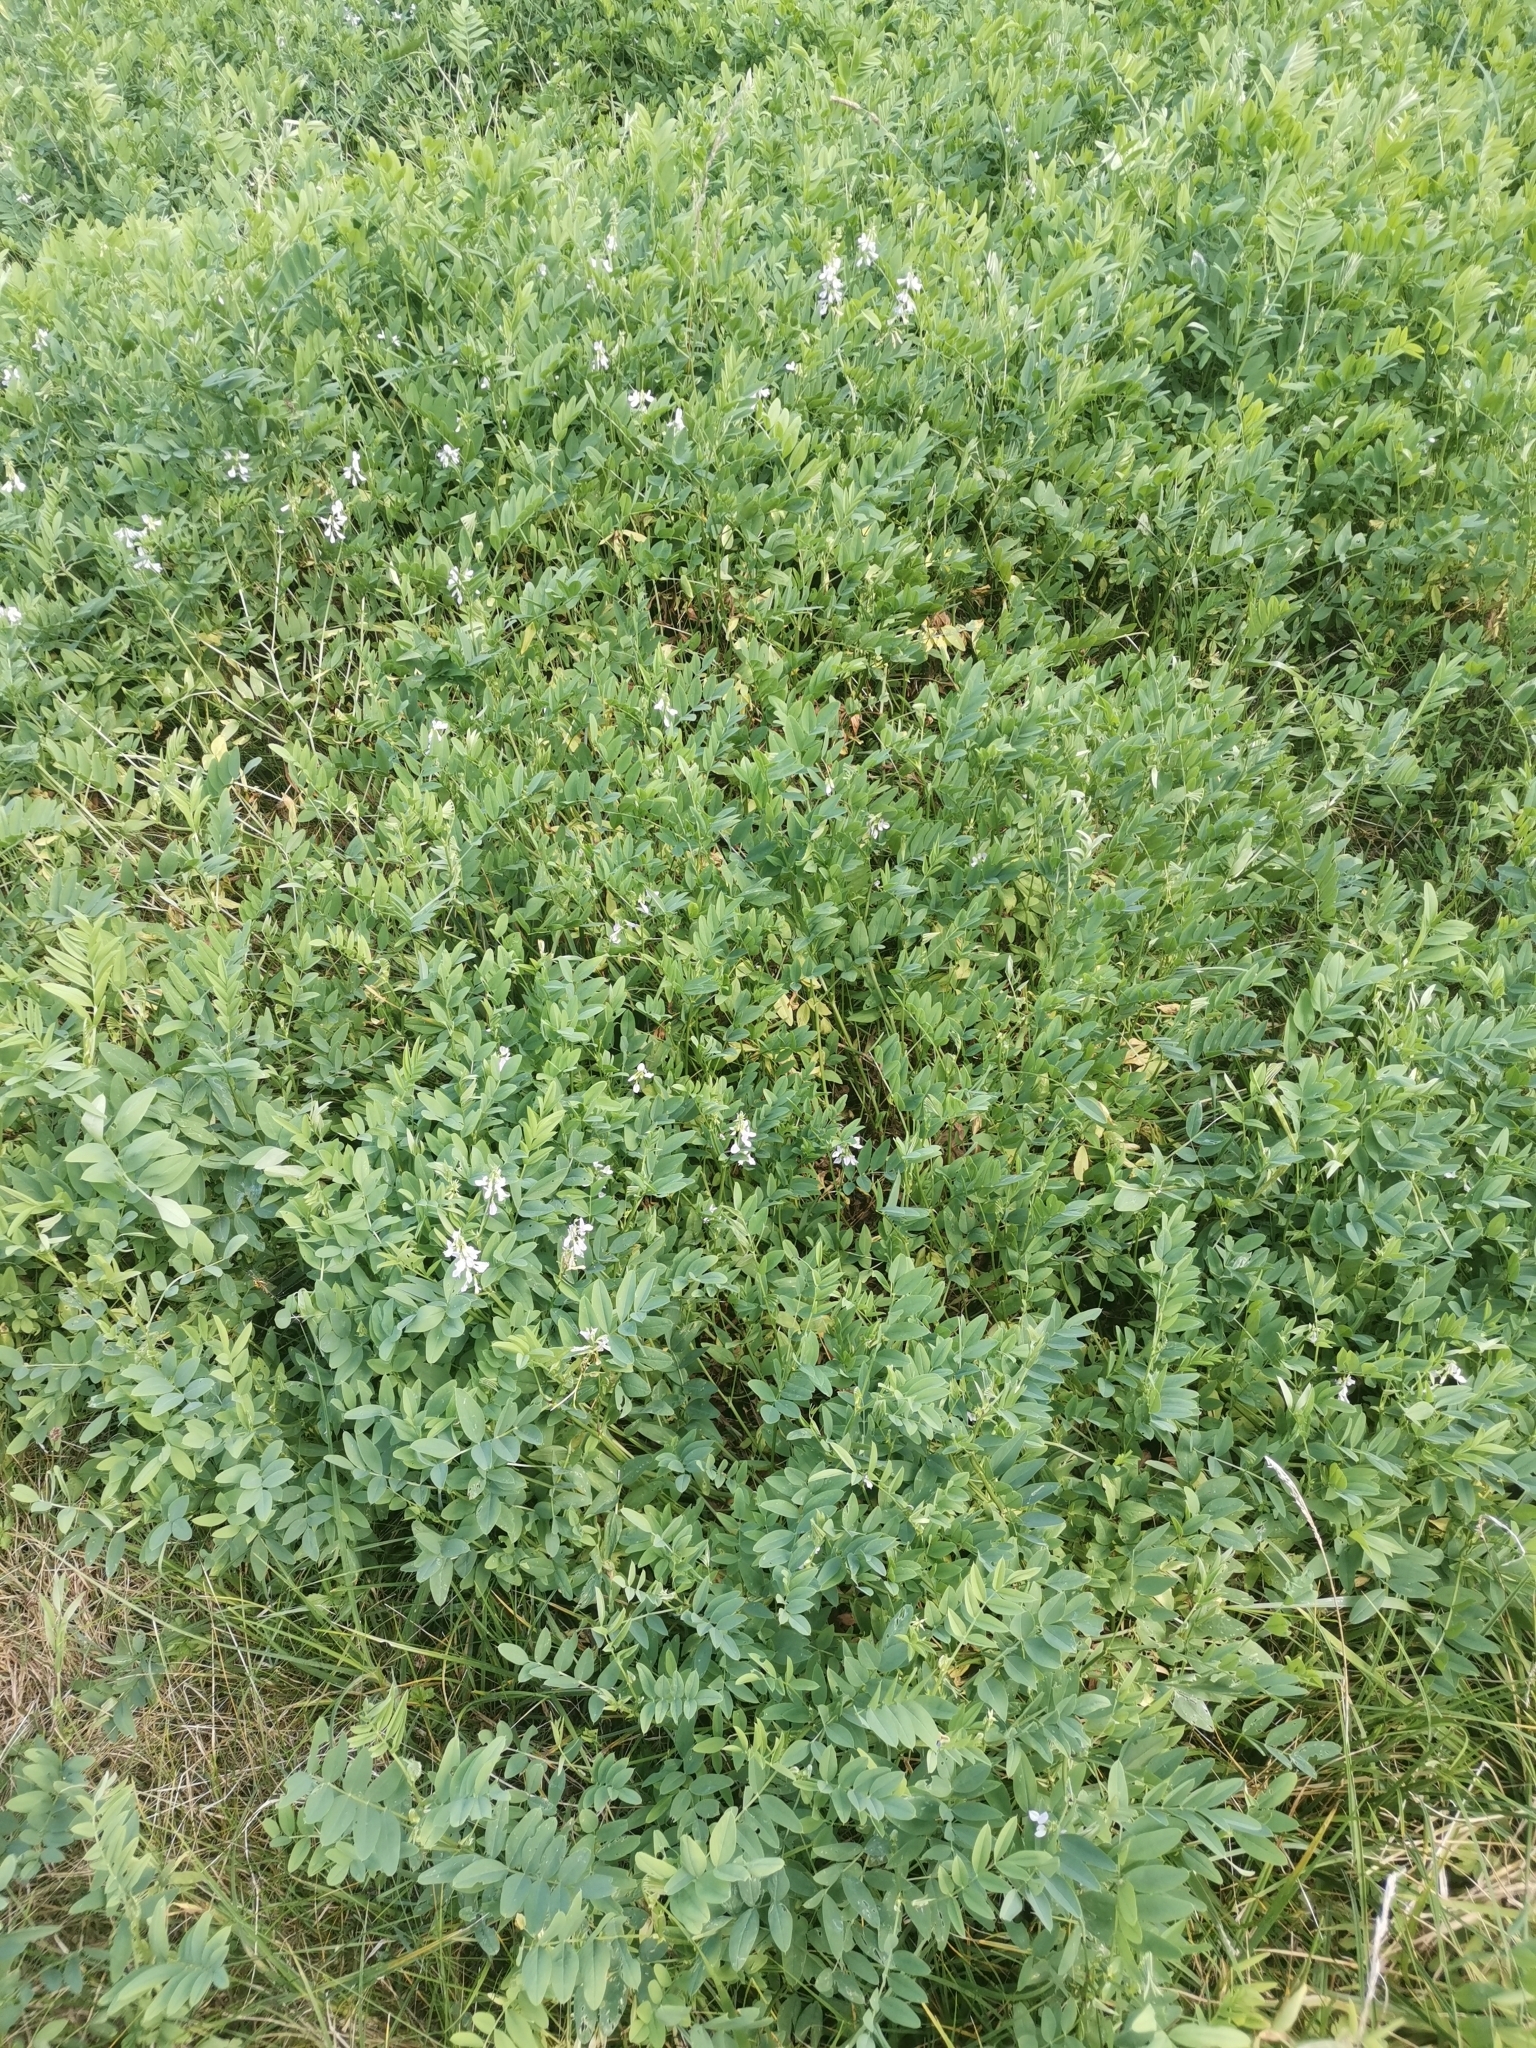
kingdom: Plantae
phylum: Tracheophyta
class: Magnoliopsida
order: Fabales
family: Fabaceae
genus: Galega
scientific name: Galega officinalis
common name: Goat's-rue
